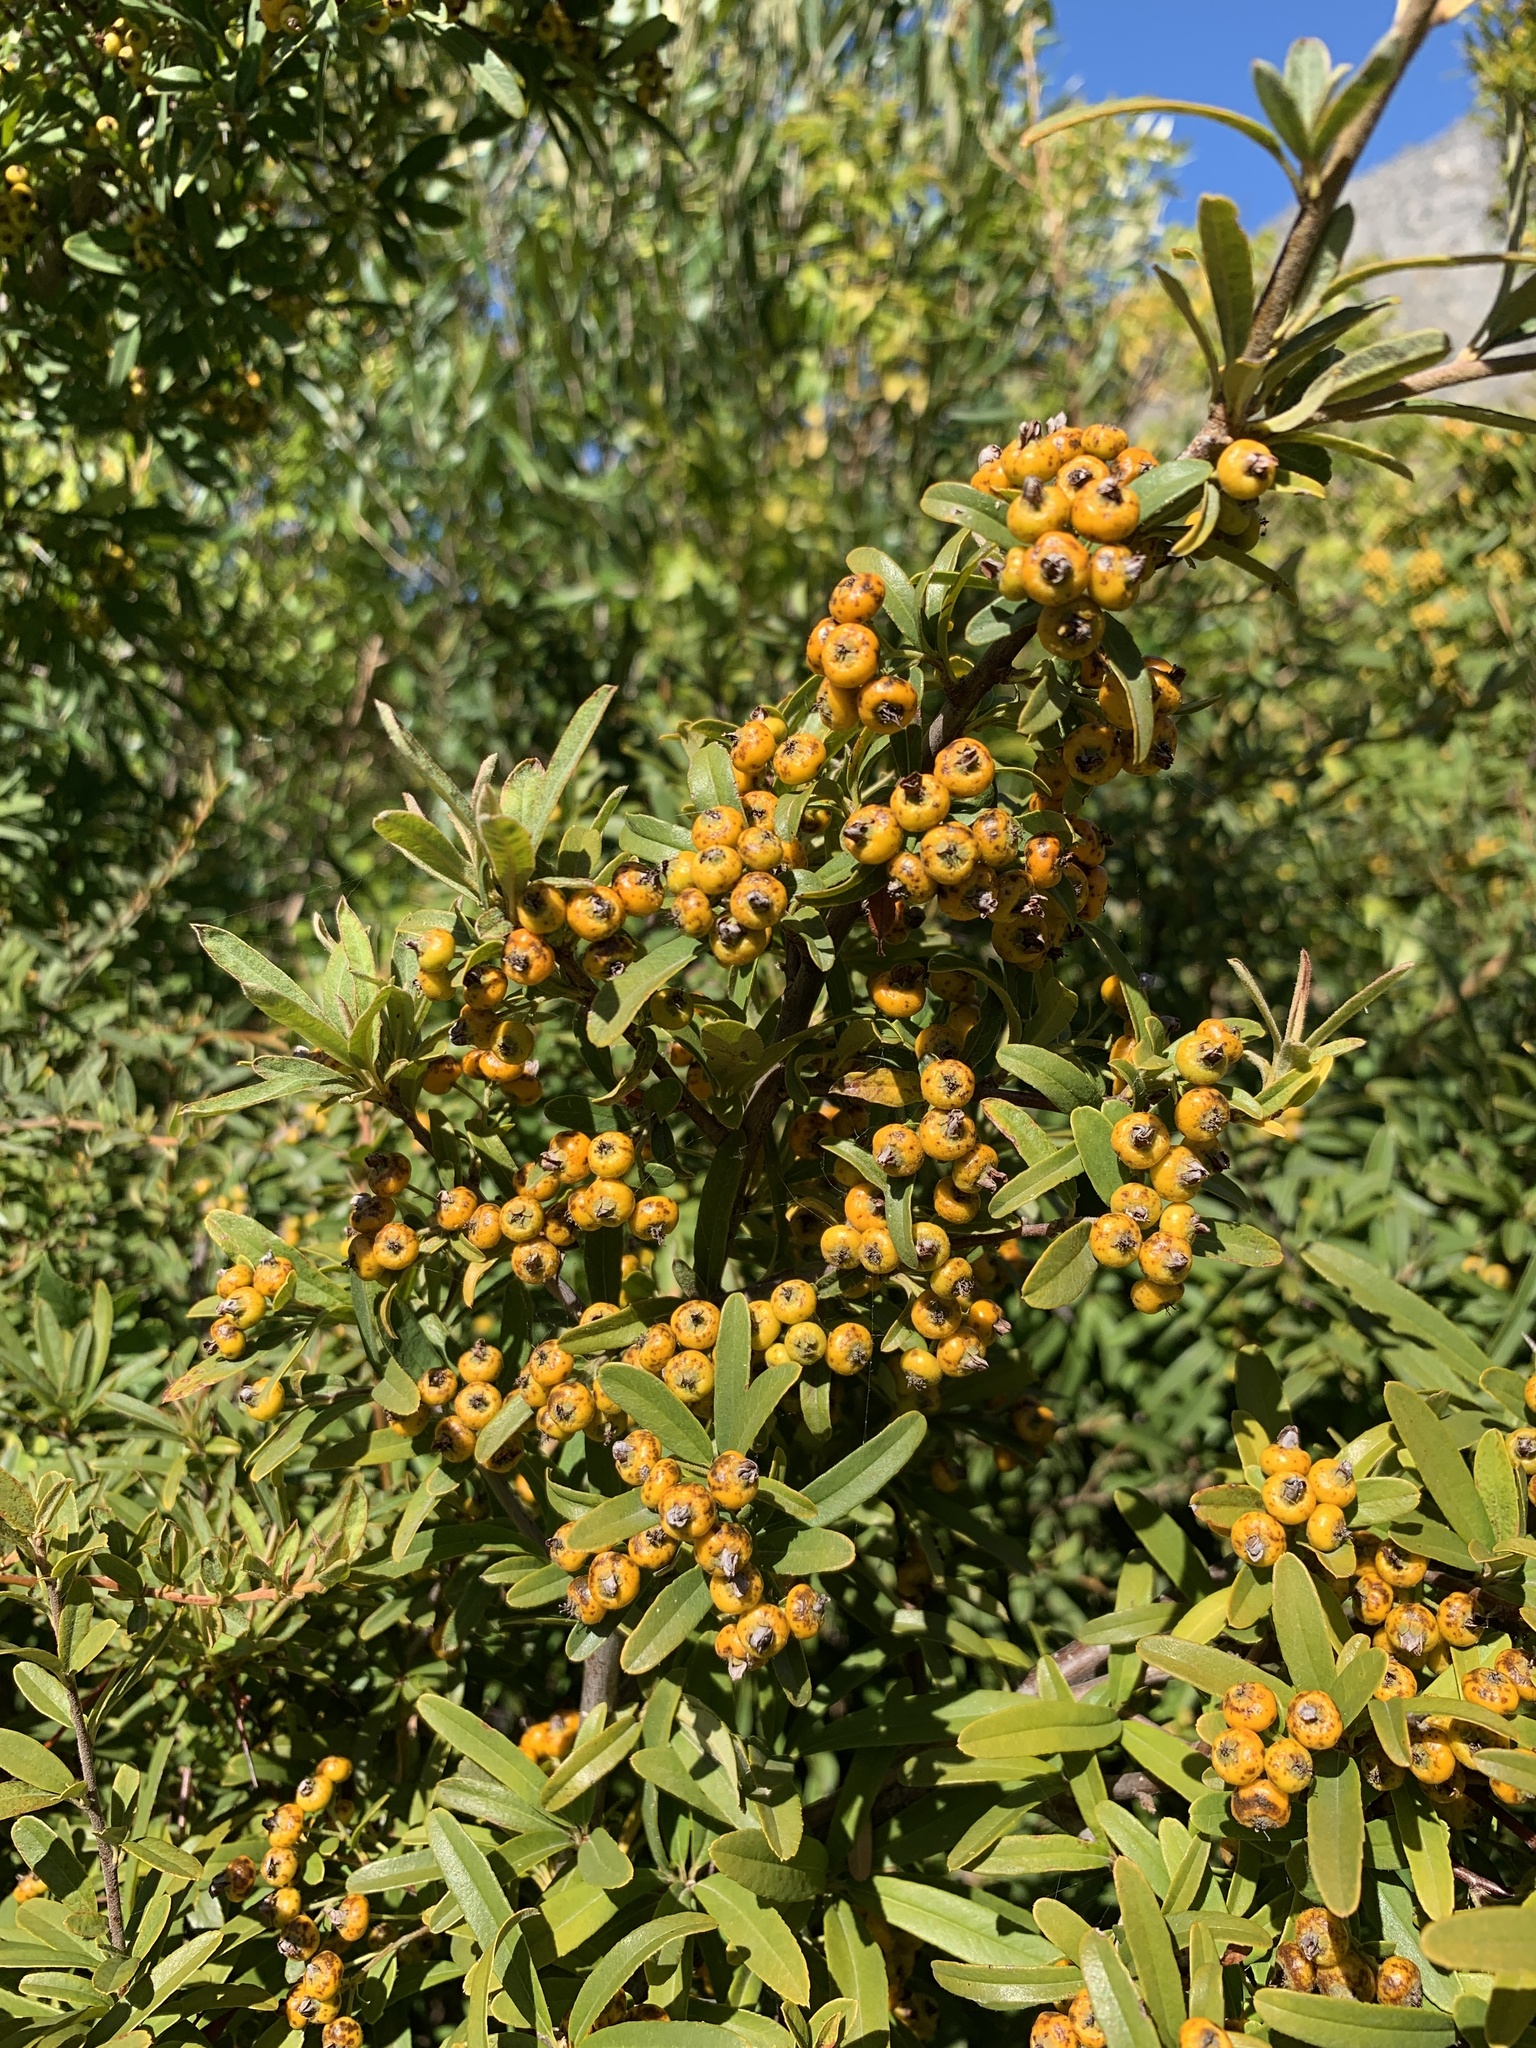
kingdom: Plantae
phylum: Tracheophyta
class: Magnoliopsida
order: Rosales
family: Rosaceae
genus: Pyracantha
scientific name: Pyracantha angustifolia
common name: Narrowleaf firethorn
